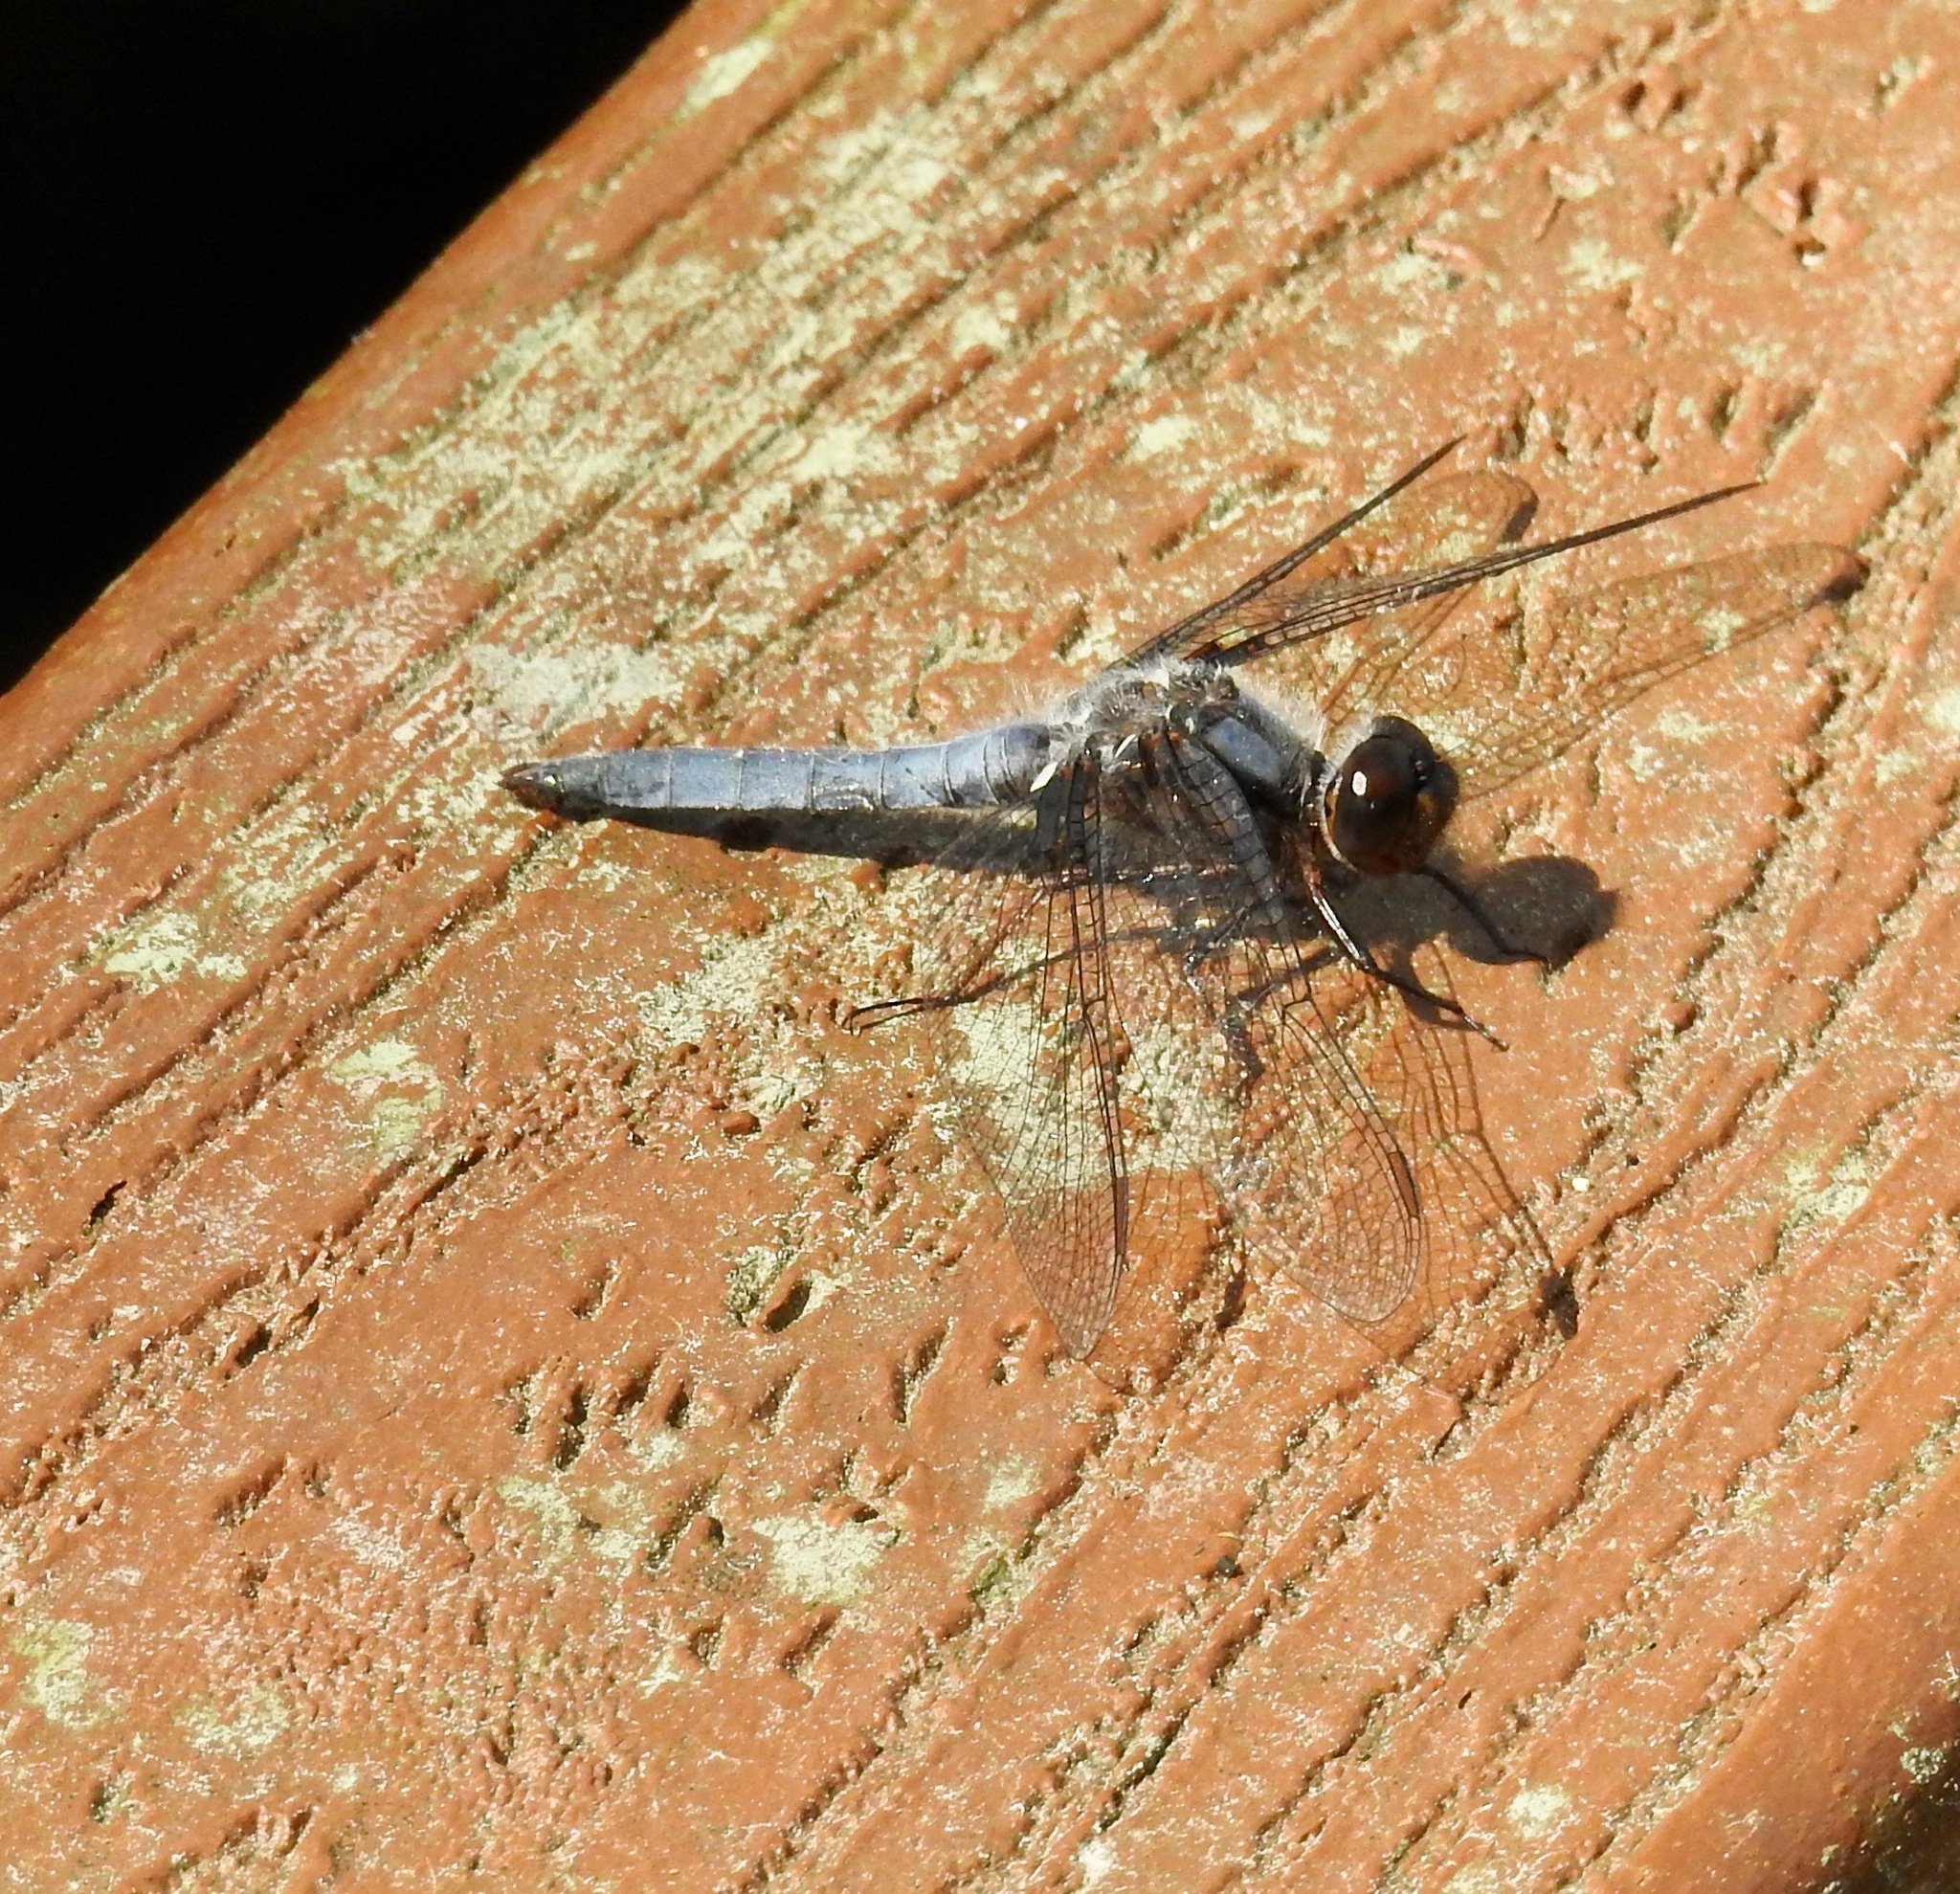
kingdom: Animalia
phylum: Arthropoda
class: Insecta
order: Odonata
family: Libellulidae
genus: Ladona
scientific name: Ladona deplanata
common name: Blue corporal
